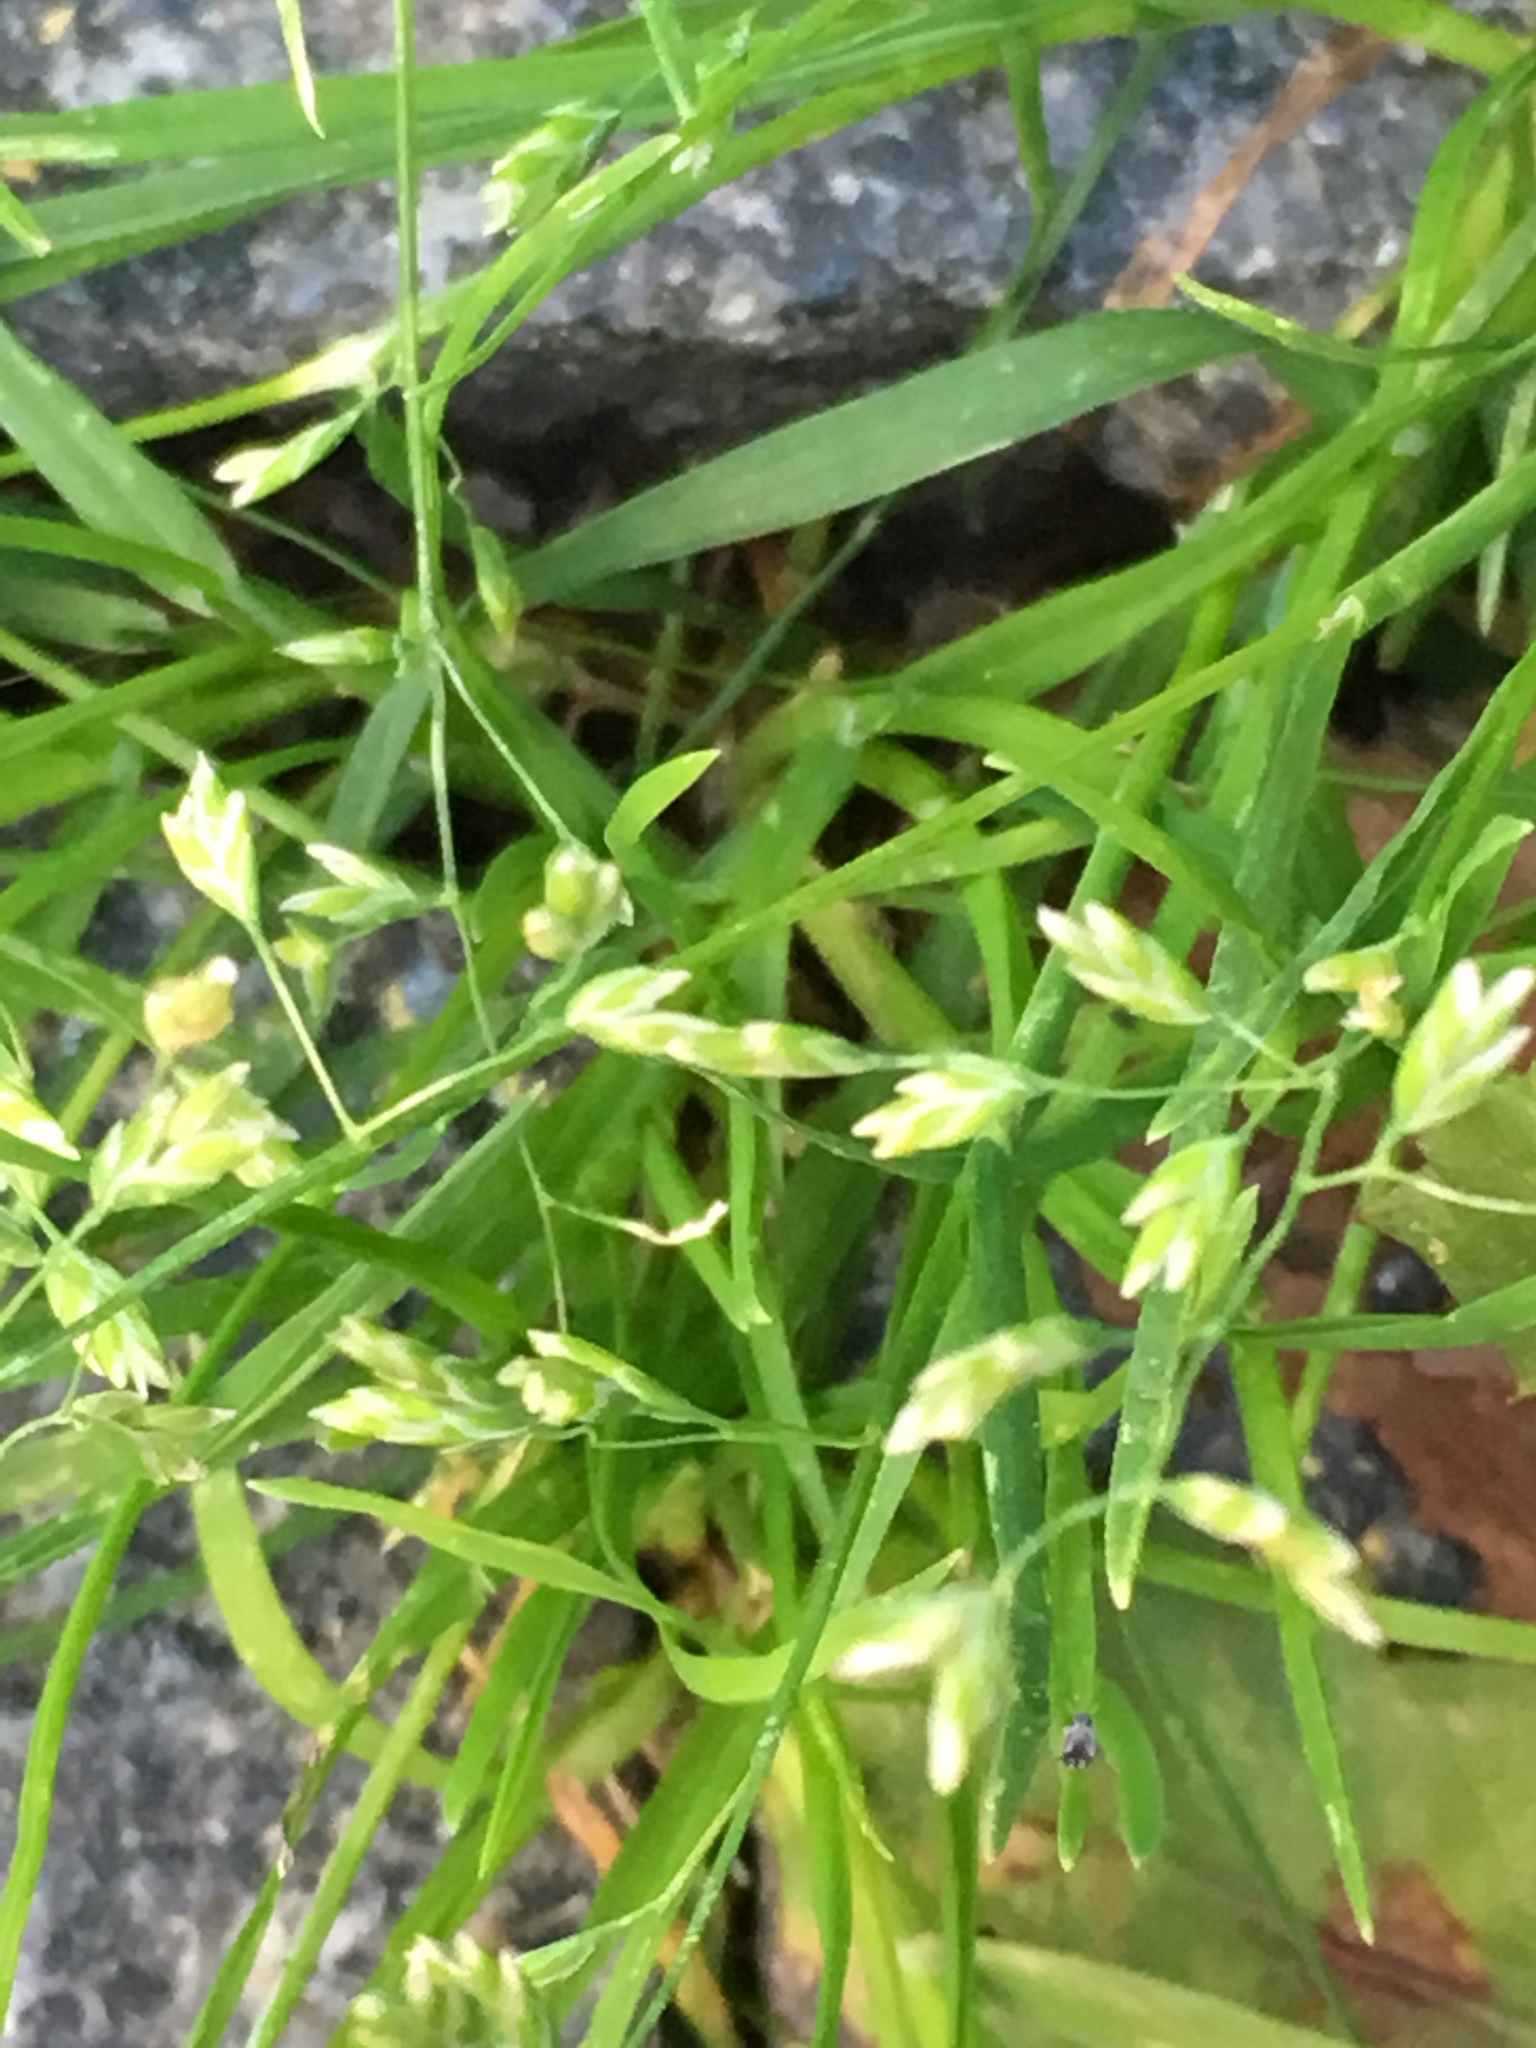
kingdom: Plantae
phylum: Tracheophyta
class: Liliopsida
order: Poales
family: Poaceae
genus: Poa
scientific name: Poa annua
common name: Annual bluegrass
